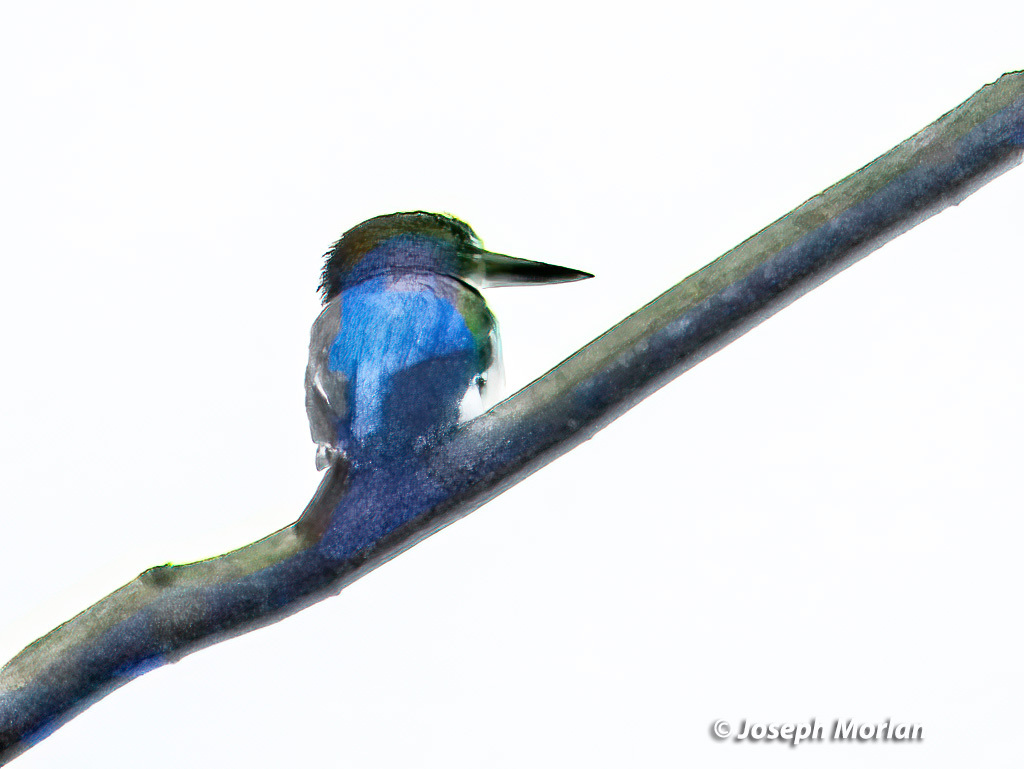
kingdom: Animalia
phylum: Chordata
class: Aves
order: Coraciiformes
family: Alcedinidae
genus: Todiramphus
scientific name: Todiramphus diops
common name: Blue-and-white kingfisher
